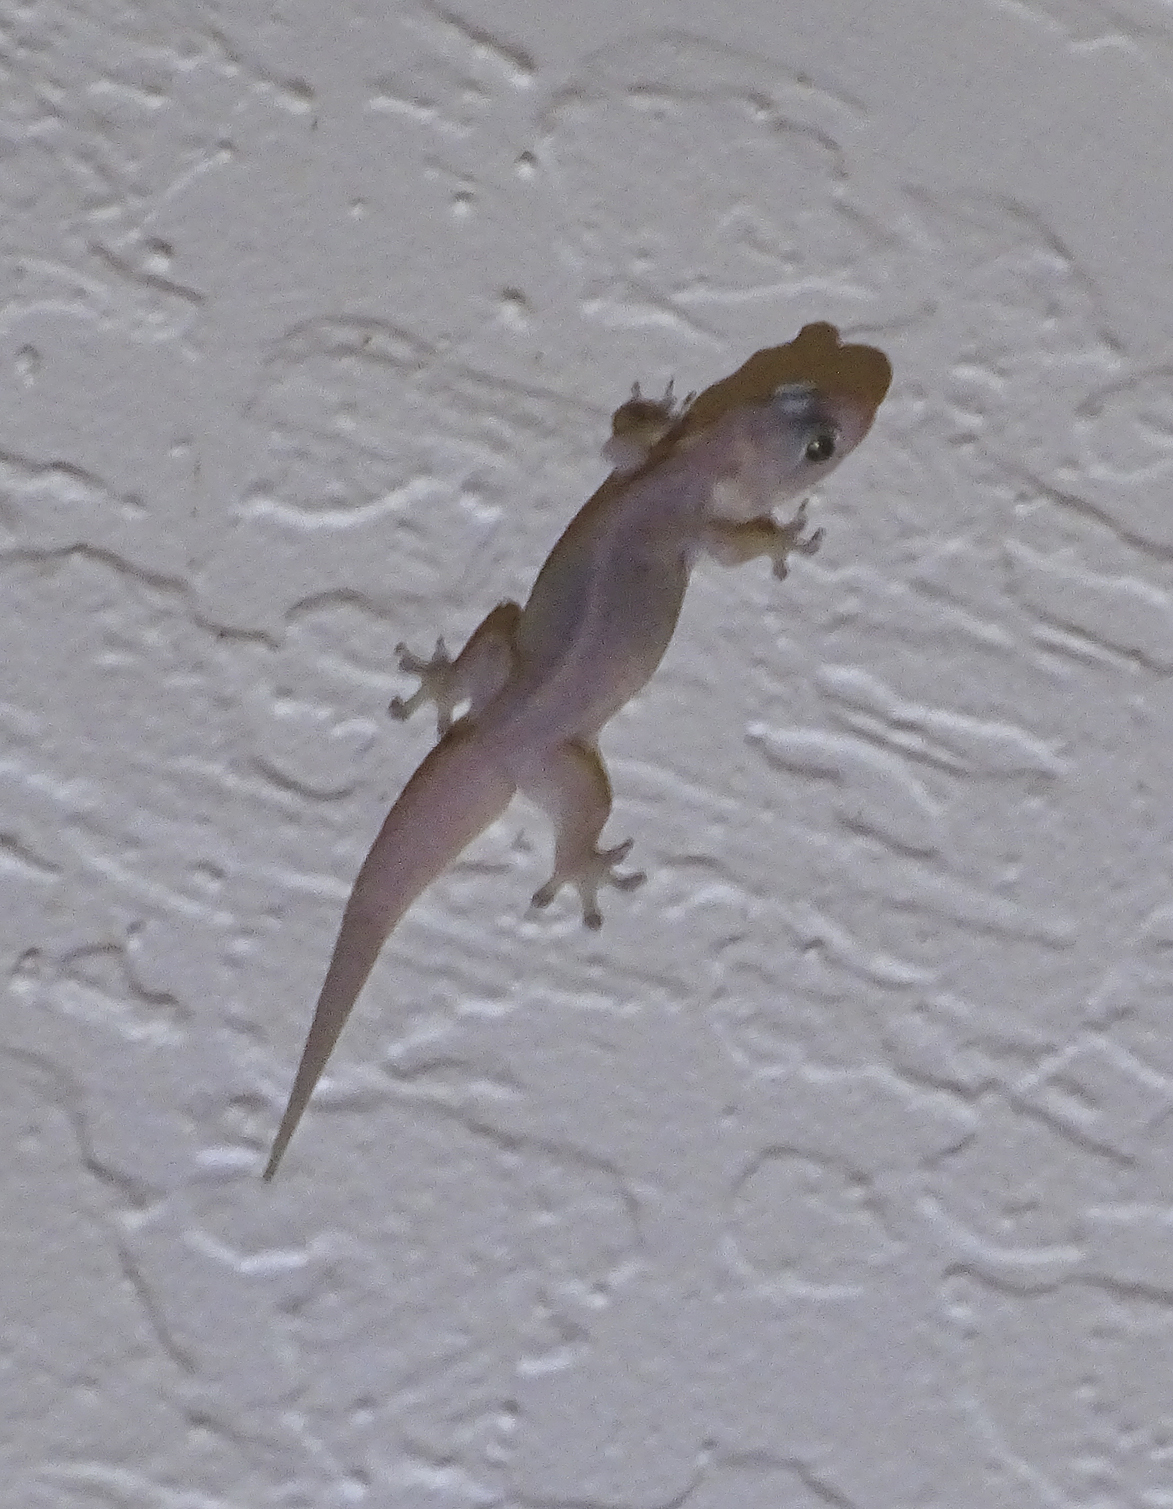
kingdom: Animalia
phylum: Chordata
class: Squamata
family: Gekkonidae
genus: Hemidactylus
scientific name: Hemidactylus frenatus
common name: Common house gecko
